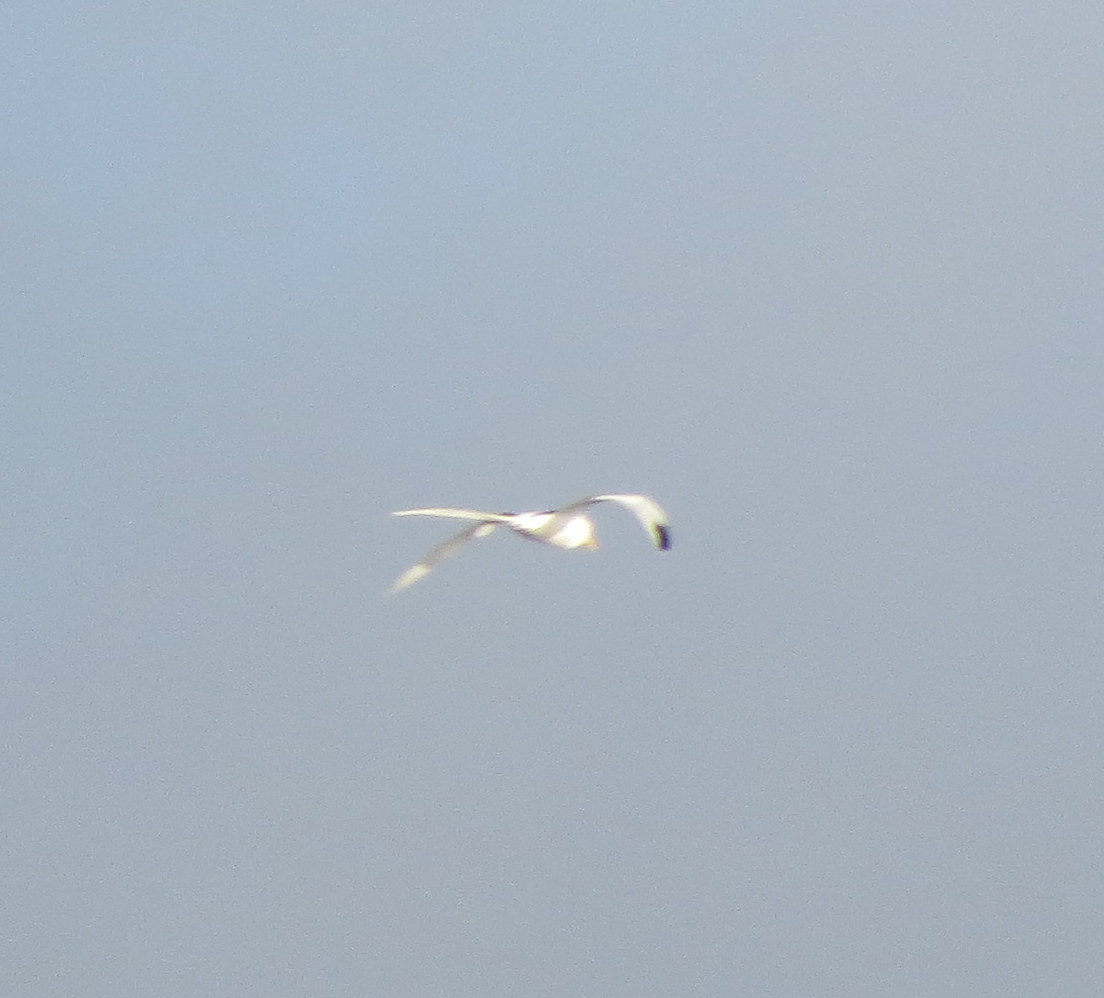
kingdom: Animalia
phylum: Chordata
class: Aves
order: Phaethontiformes
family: Phaethontidae
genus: Phaethon
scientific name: Phaethon lepturus
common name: White-tailed tropicbird
